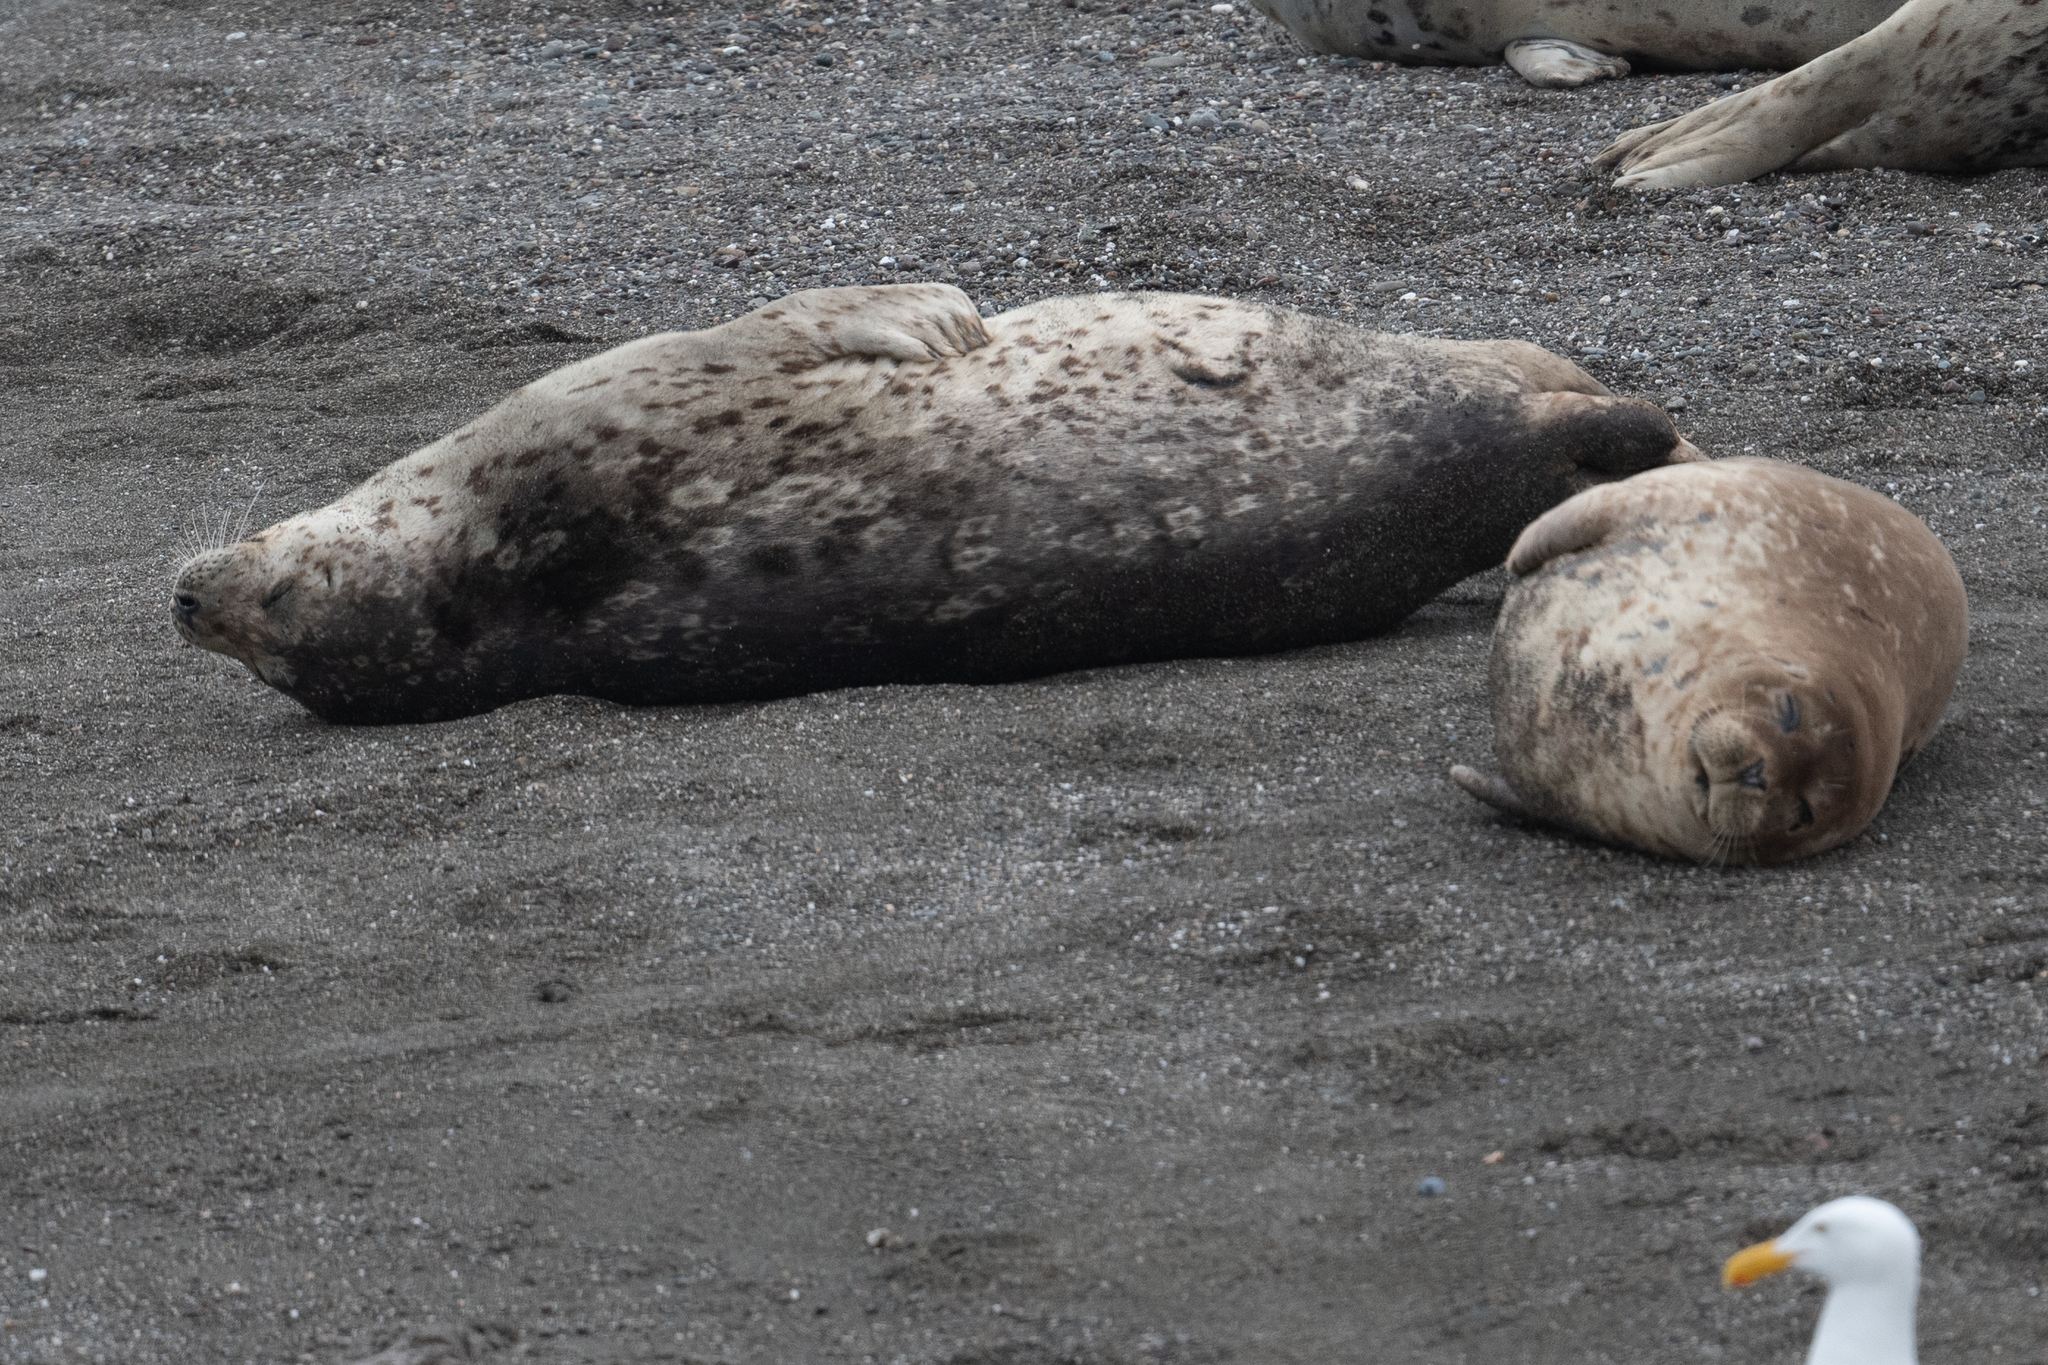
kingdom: Animalia
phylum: Chordata
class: Mammalia
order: Carnivora
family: Phocidae
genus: Phoca
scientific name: Phoca vitulina
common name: Harbor seal
